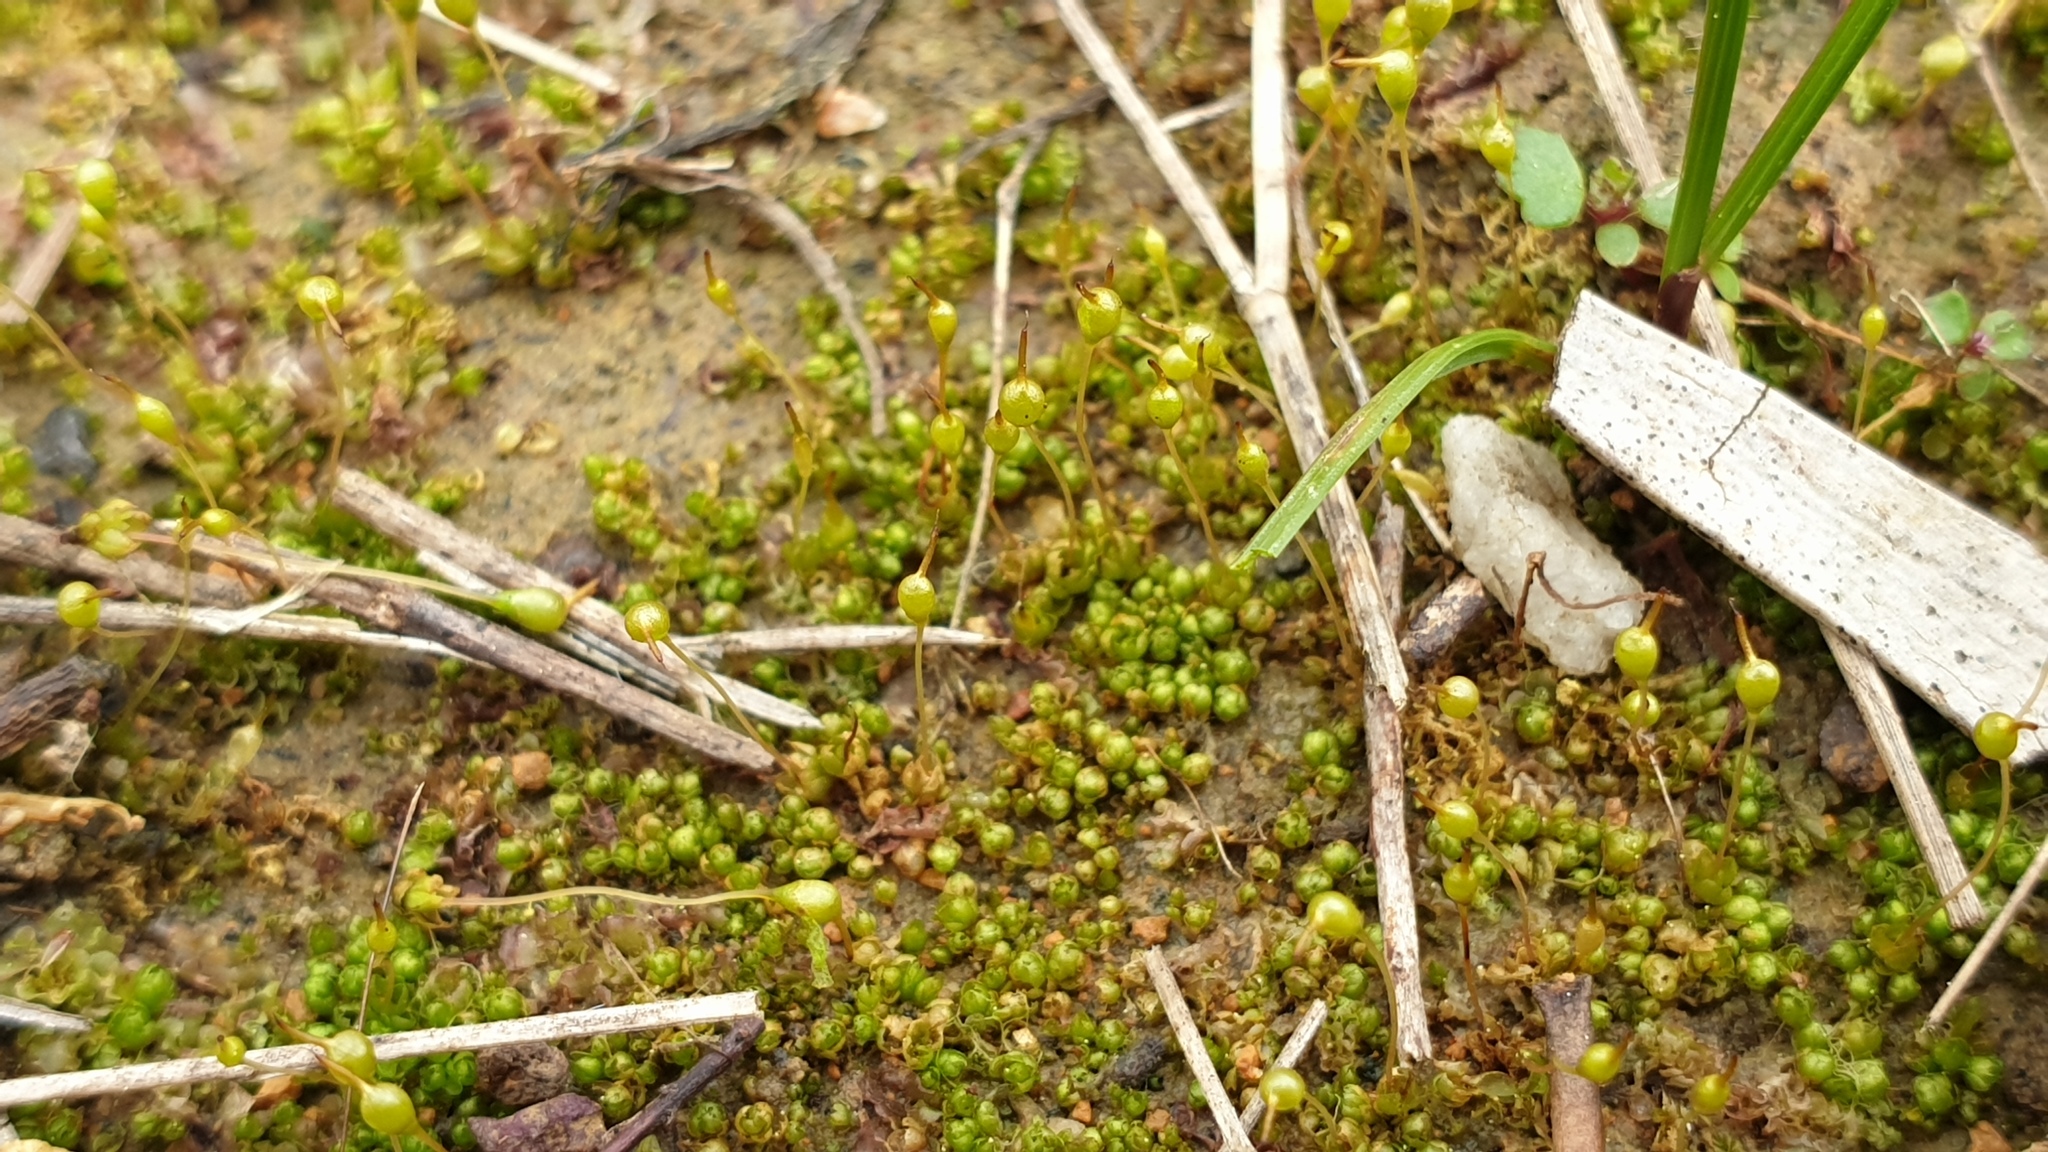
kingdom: Plantae
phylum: Bryophyta
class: Bryopsida
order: Funariales
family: Funariaceae
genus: Entosthodon
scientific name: Entosthodon subnudus
